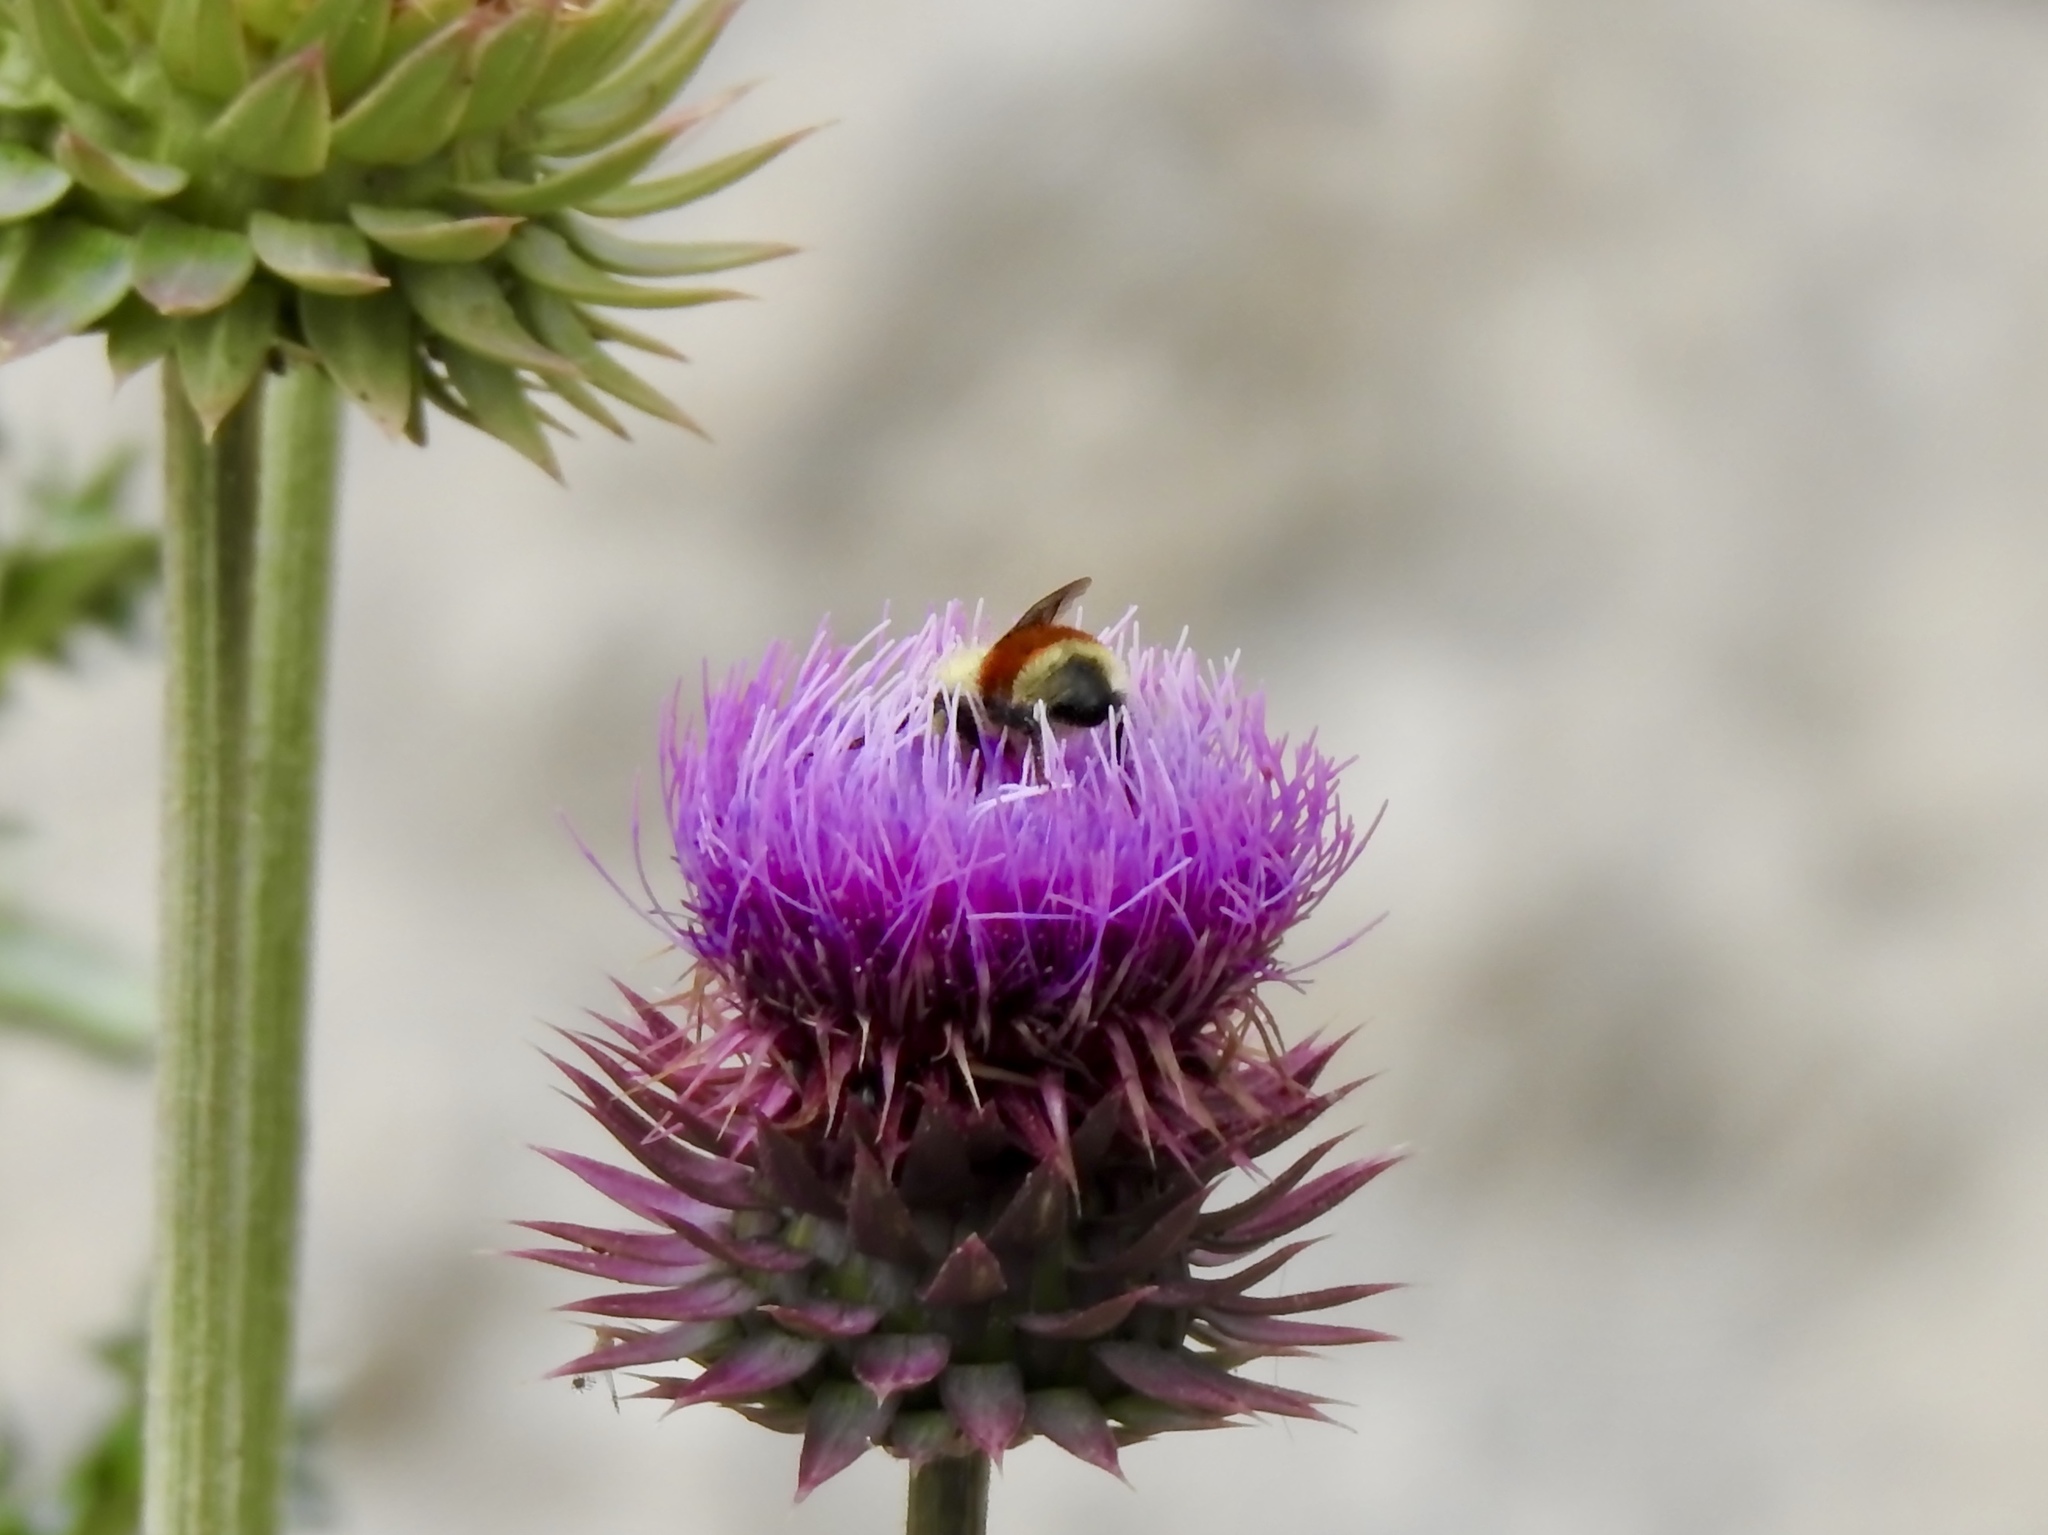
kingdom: Animalia
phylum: Arthropoda
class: Insecta
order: Hymenoptera
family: Apidae
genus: Bombus
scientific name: Bombus huntii
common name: Hunt bumble bee
